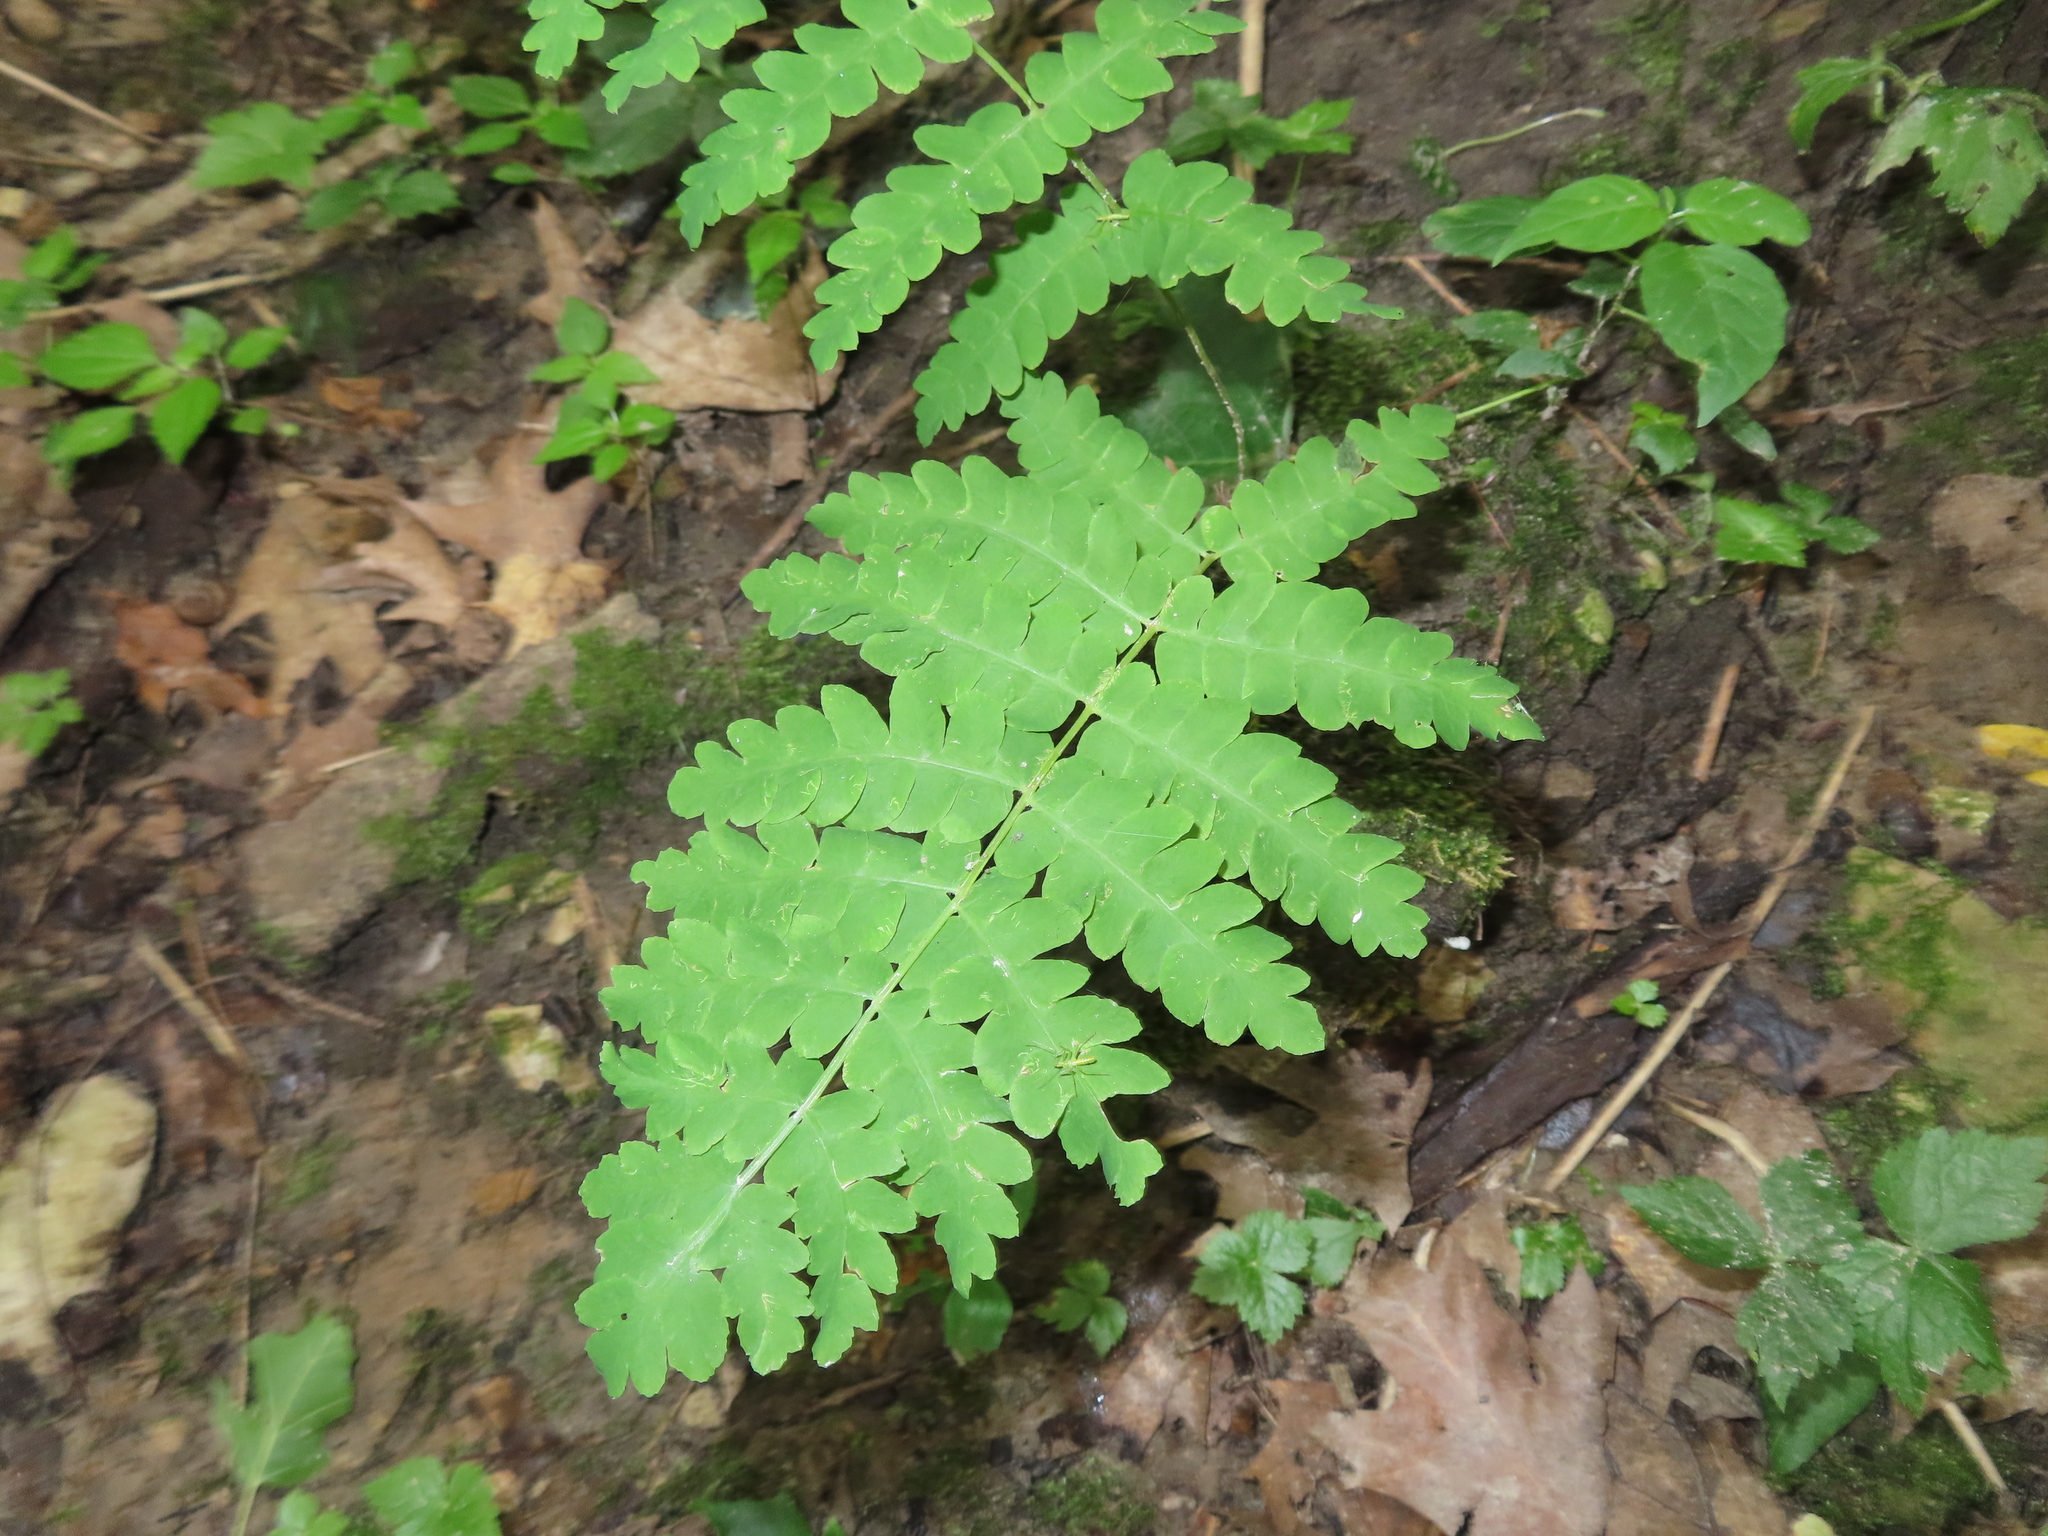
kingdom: Plantae
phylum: Tracheophyta
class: Polypodiopsida
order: Osmundales
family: Osmundaceae
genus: Claytosmunda
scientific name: Claytosmunda claytoniana
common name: Clayton's fern
